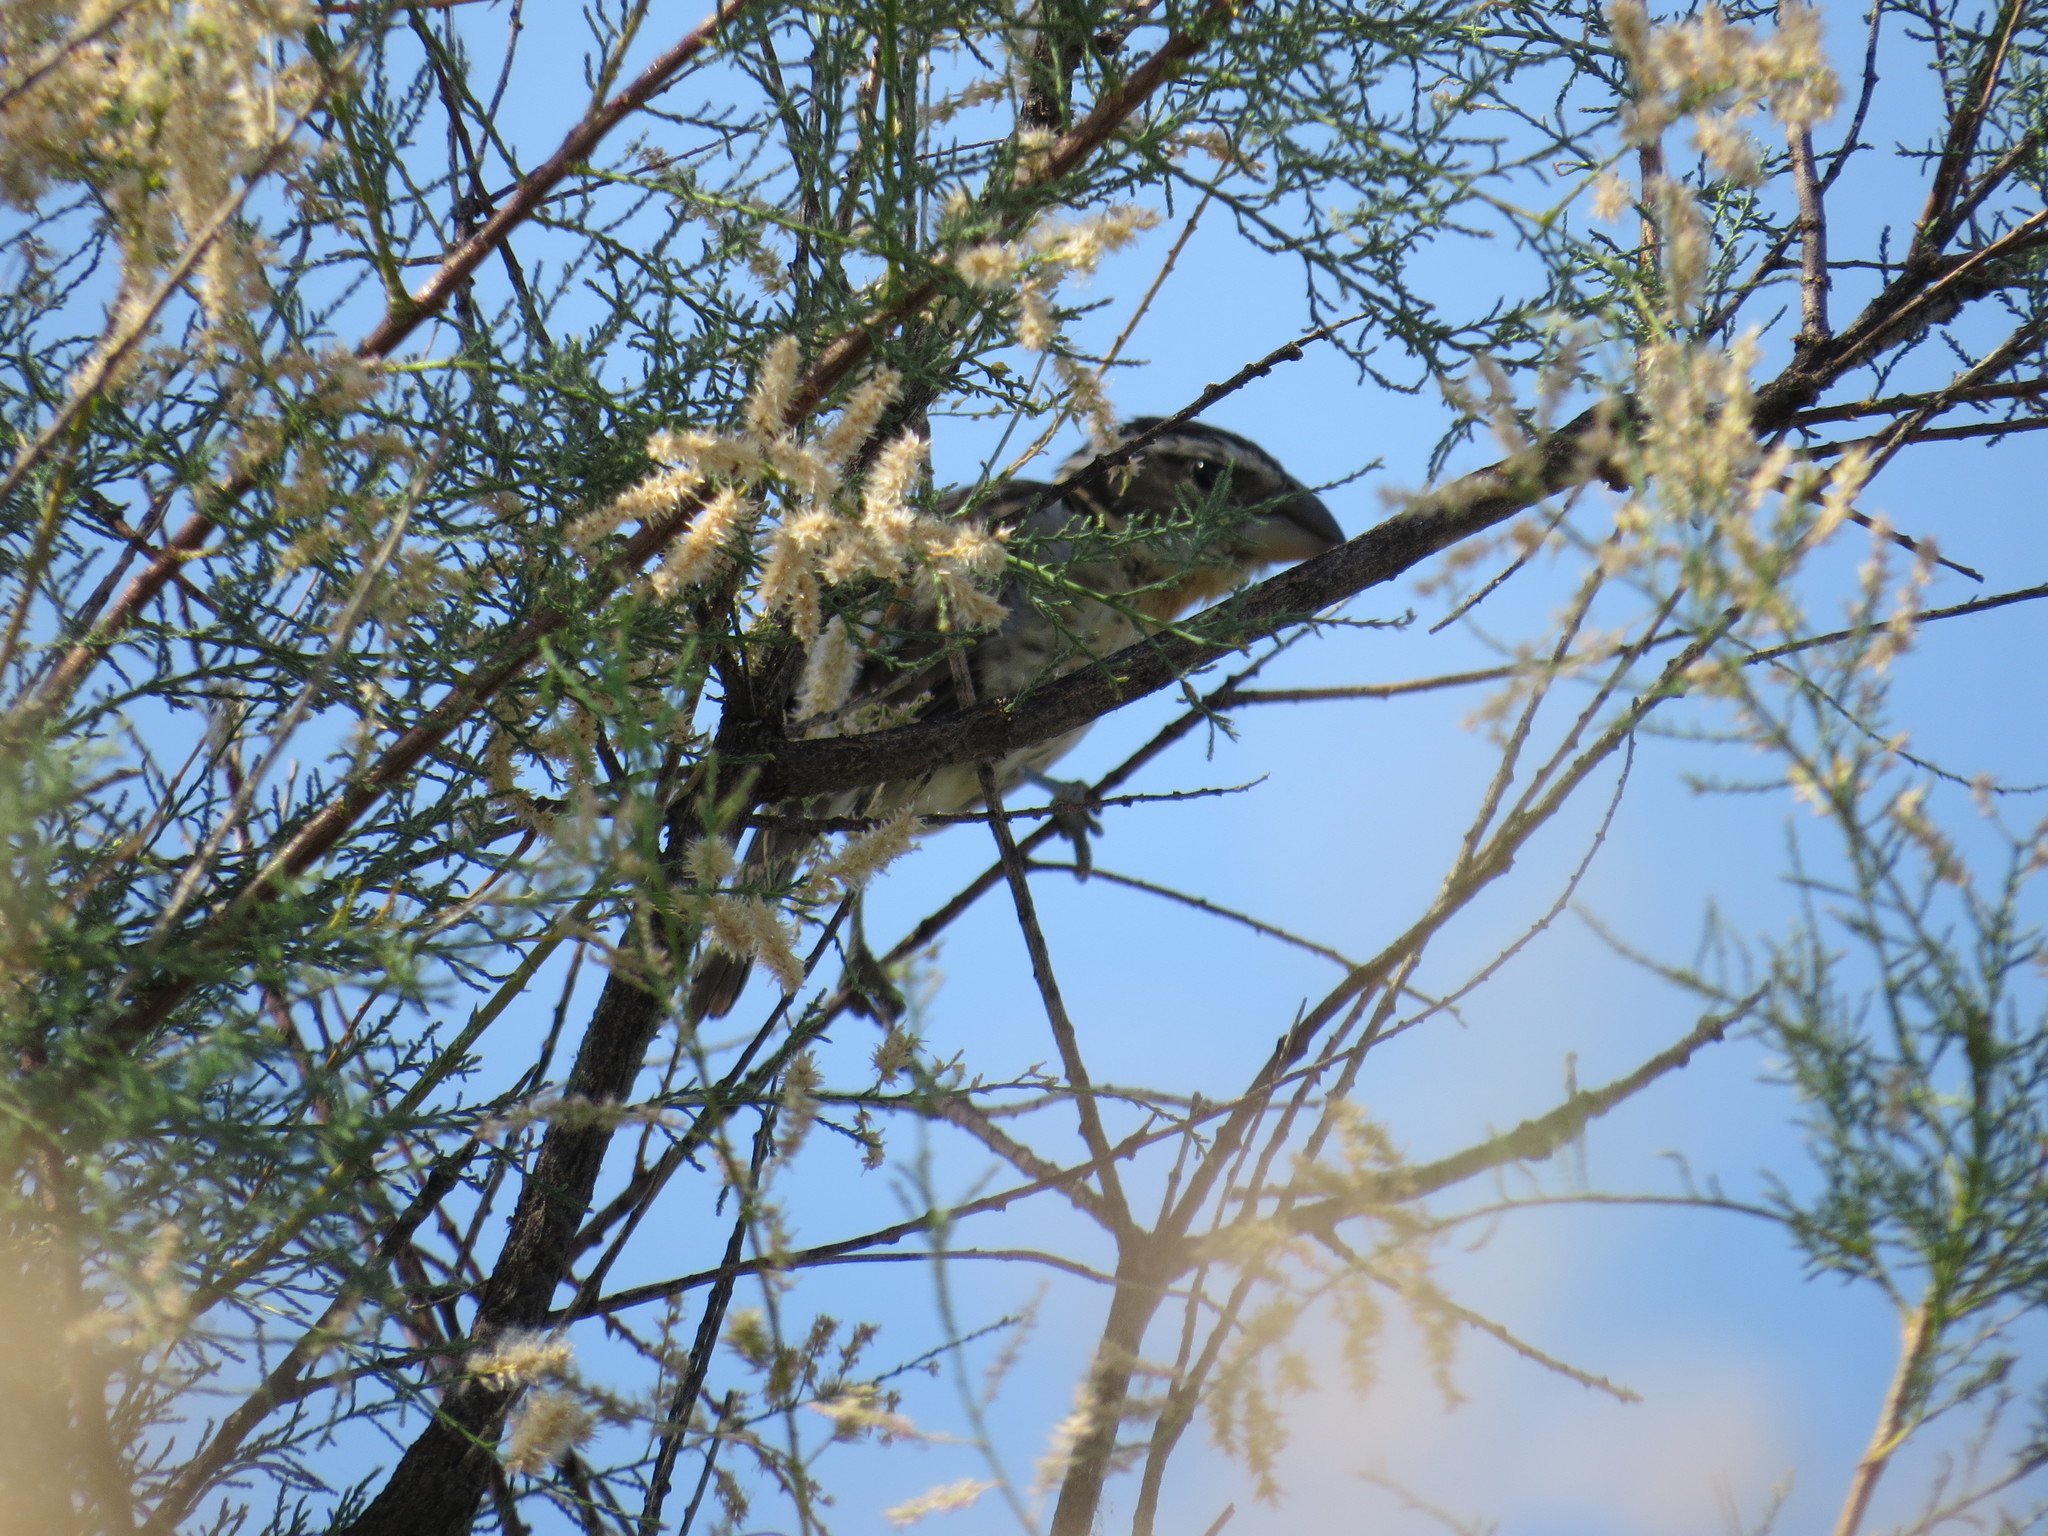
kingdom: Animalia
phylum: Chordata
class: Aves
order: Passeriformes
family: Cardinalidae
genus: Pheucticus
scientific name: Pheucticus melanocephalus
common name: Black-headed grosbeak
